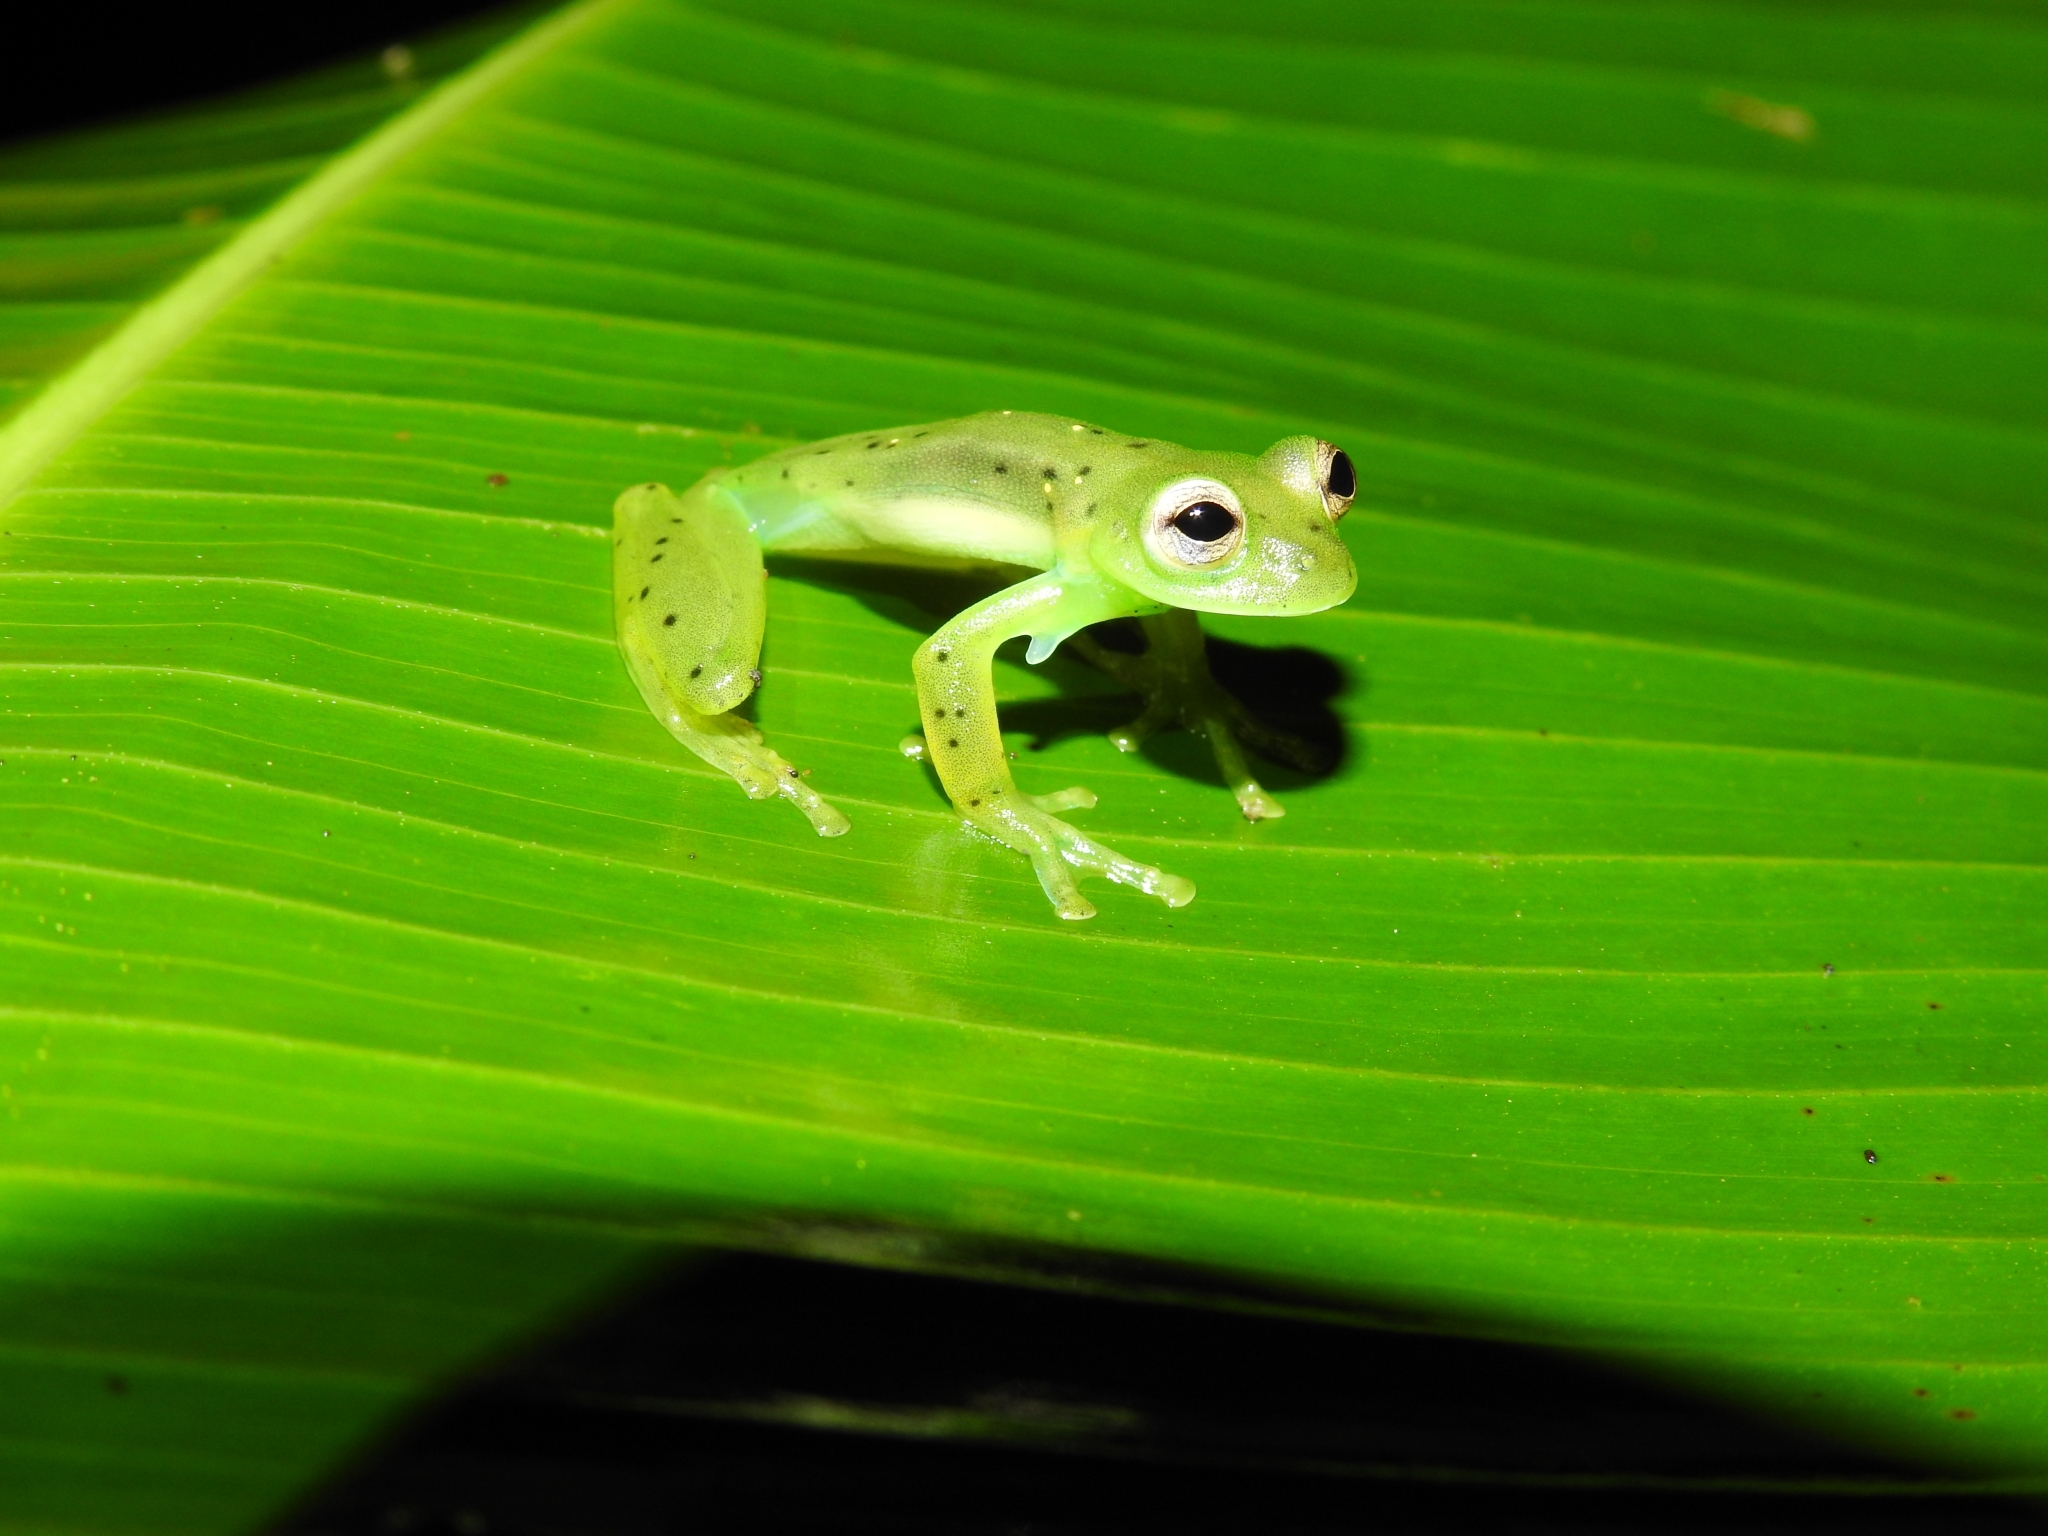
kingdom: Animalia
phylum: Chordata
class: Amphibia
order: Anura
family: Centrolenidae
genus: Espadarana
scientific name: Espadarana prosoblepon
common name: Rana de cristal variable
